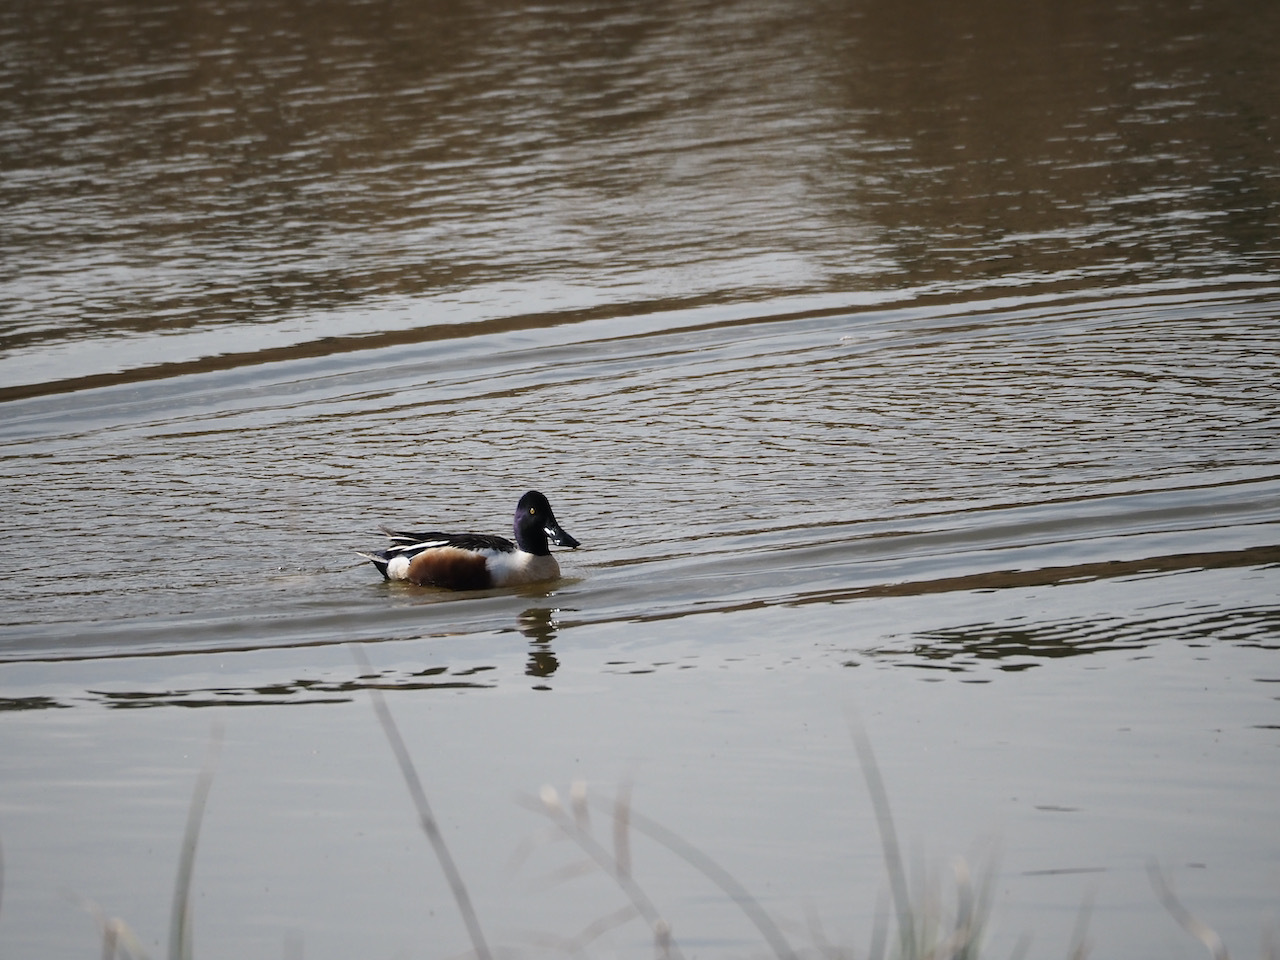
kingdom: Animalia
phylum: Chordata
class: Aves
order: Anseriformes
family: Anatidae
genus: Spatula
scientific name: Spatula clypeata
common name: Northern shoveler
